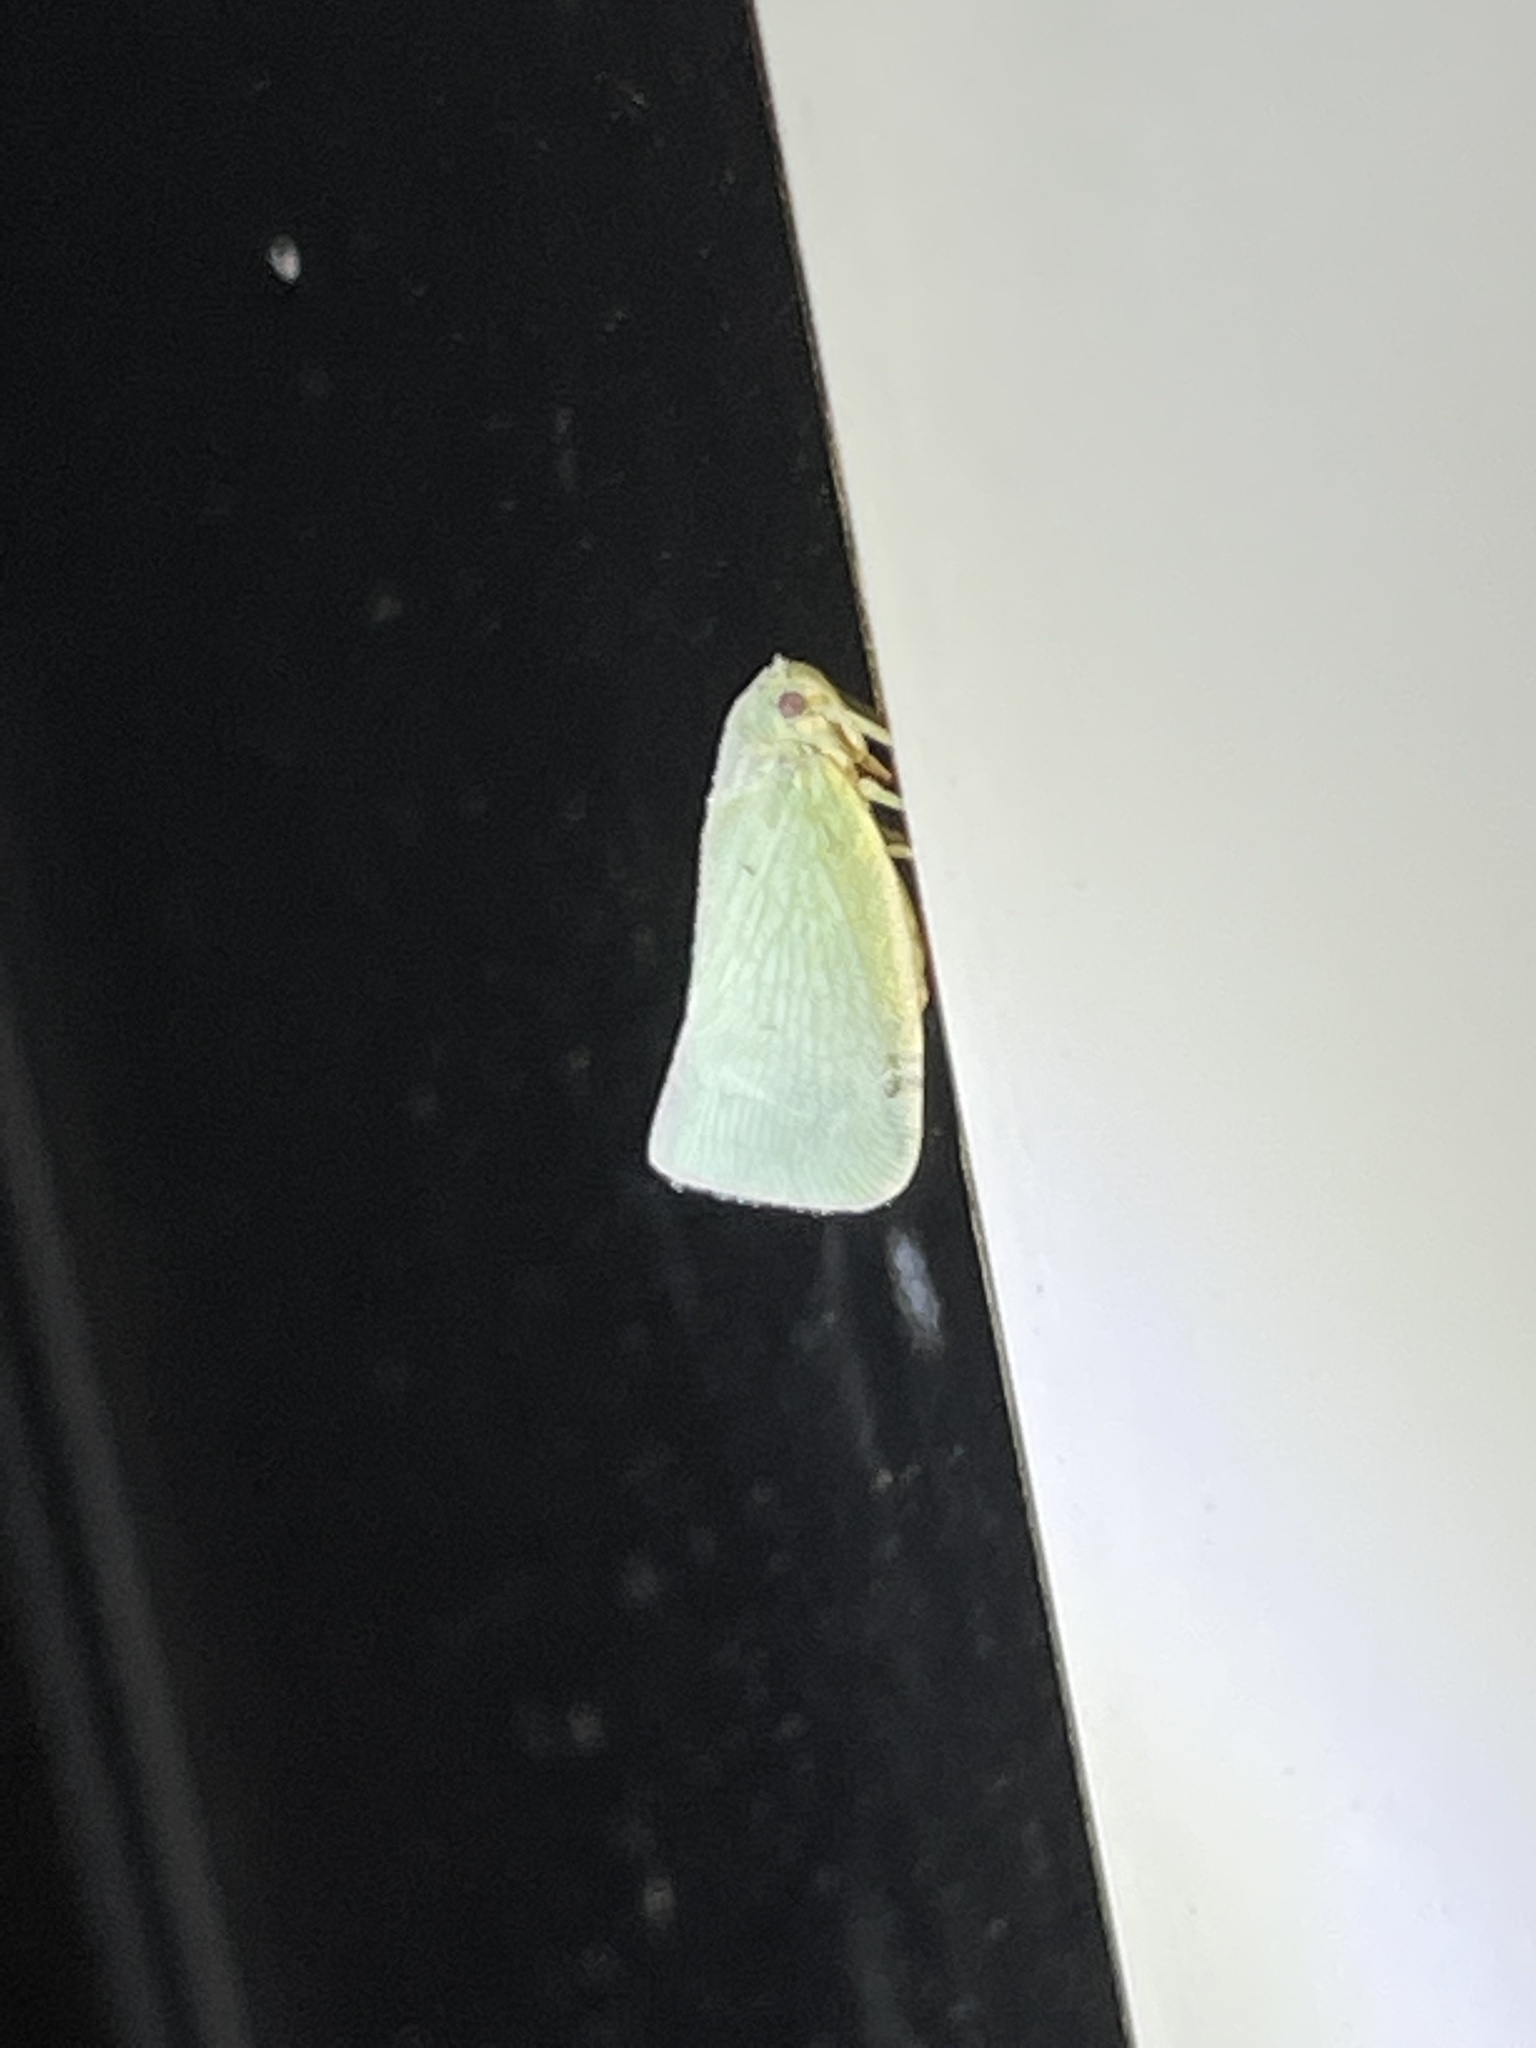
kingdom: Animalia
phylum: Arthropoda
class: Insecta
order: Hemiptera
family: Flatidae
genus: Flatormenis
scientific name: Flatormenis proxima
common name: Northern flatid planthopper
